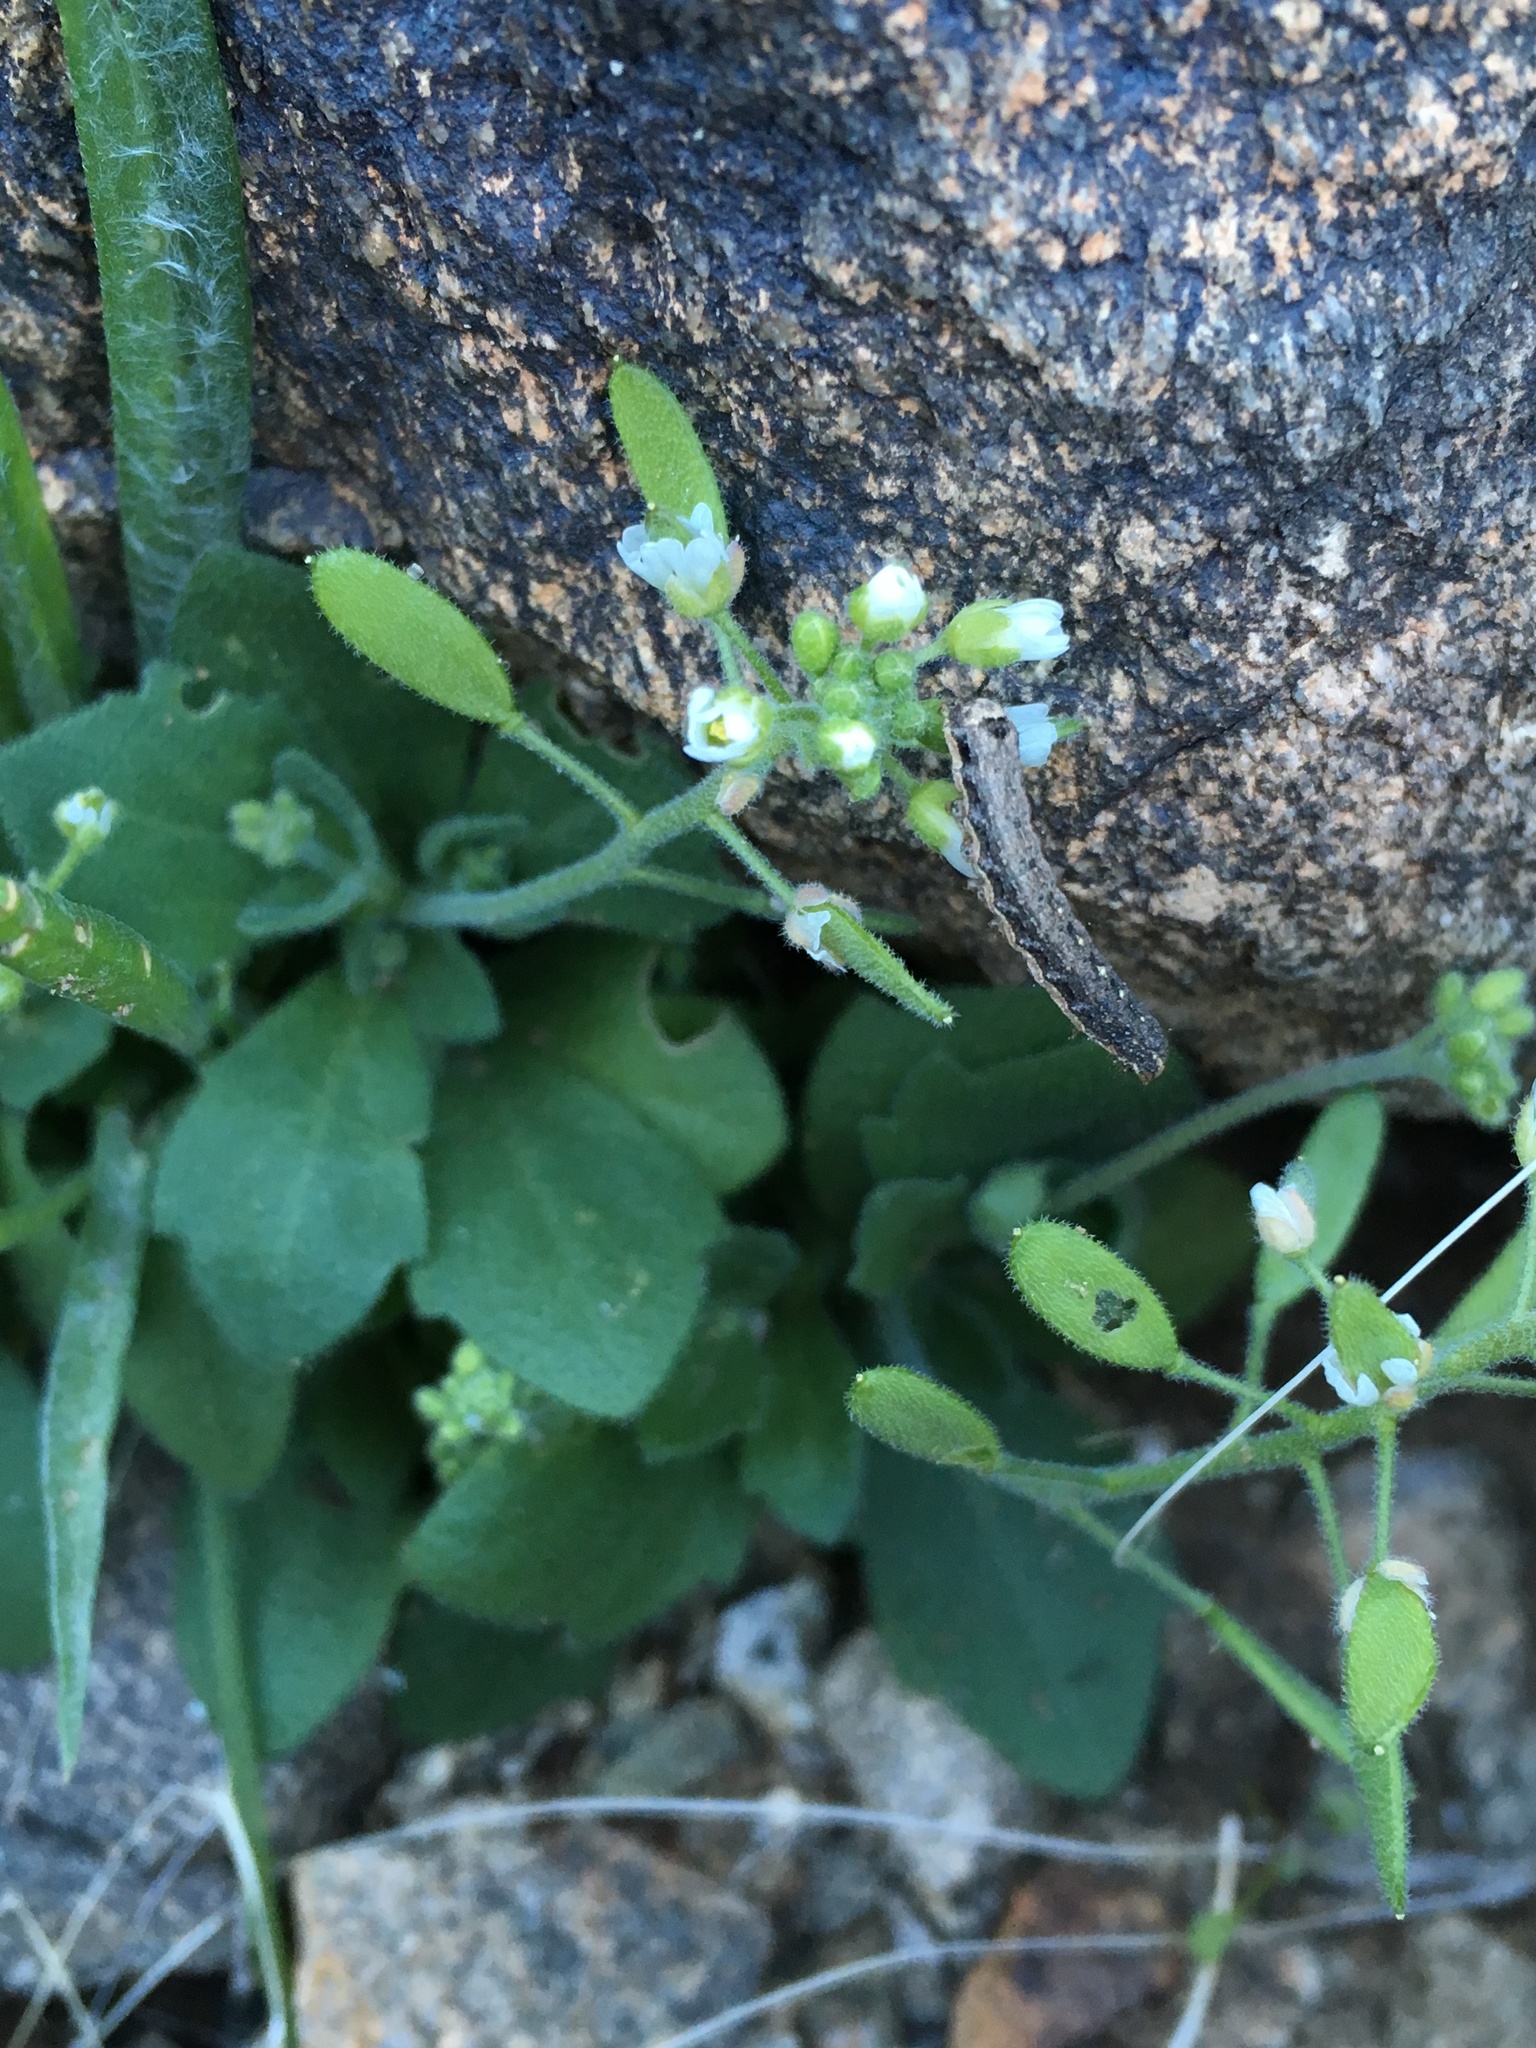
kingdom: Plantae
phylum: Tracheophyta
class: Magnoliopsida
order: Brassicales
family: Brassicaceae
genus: Tomostima
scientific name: Tomostima cuneifolia
